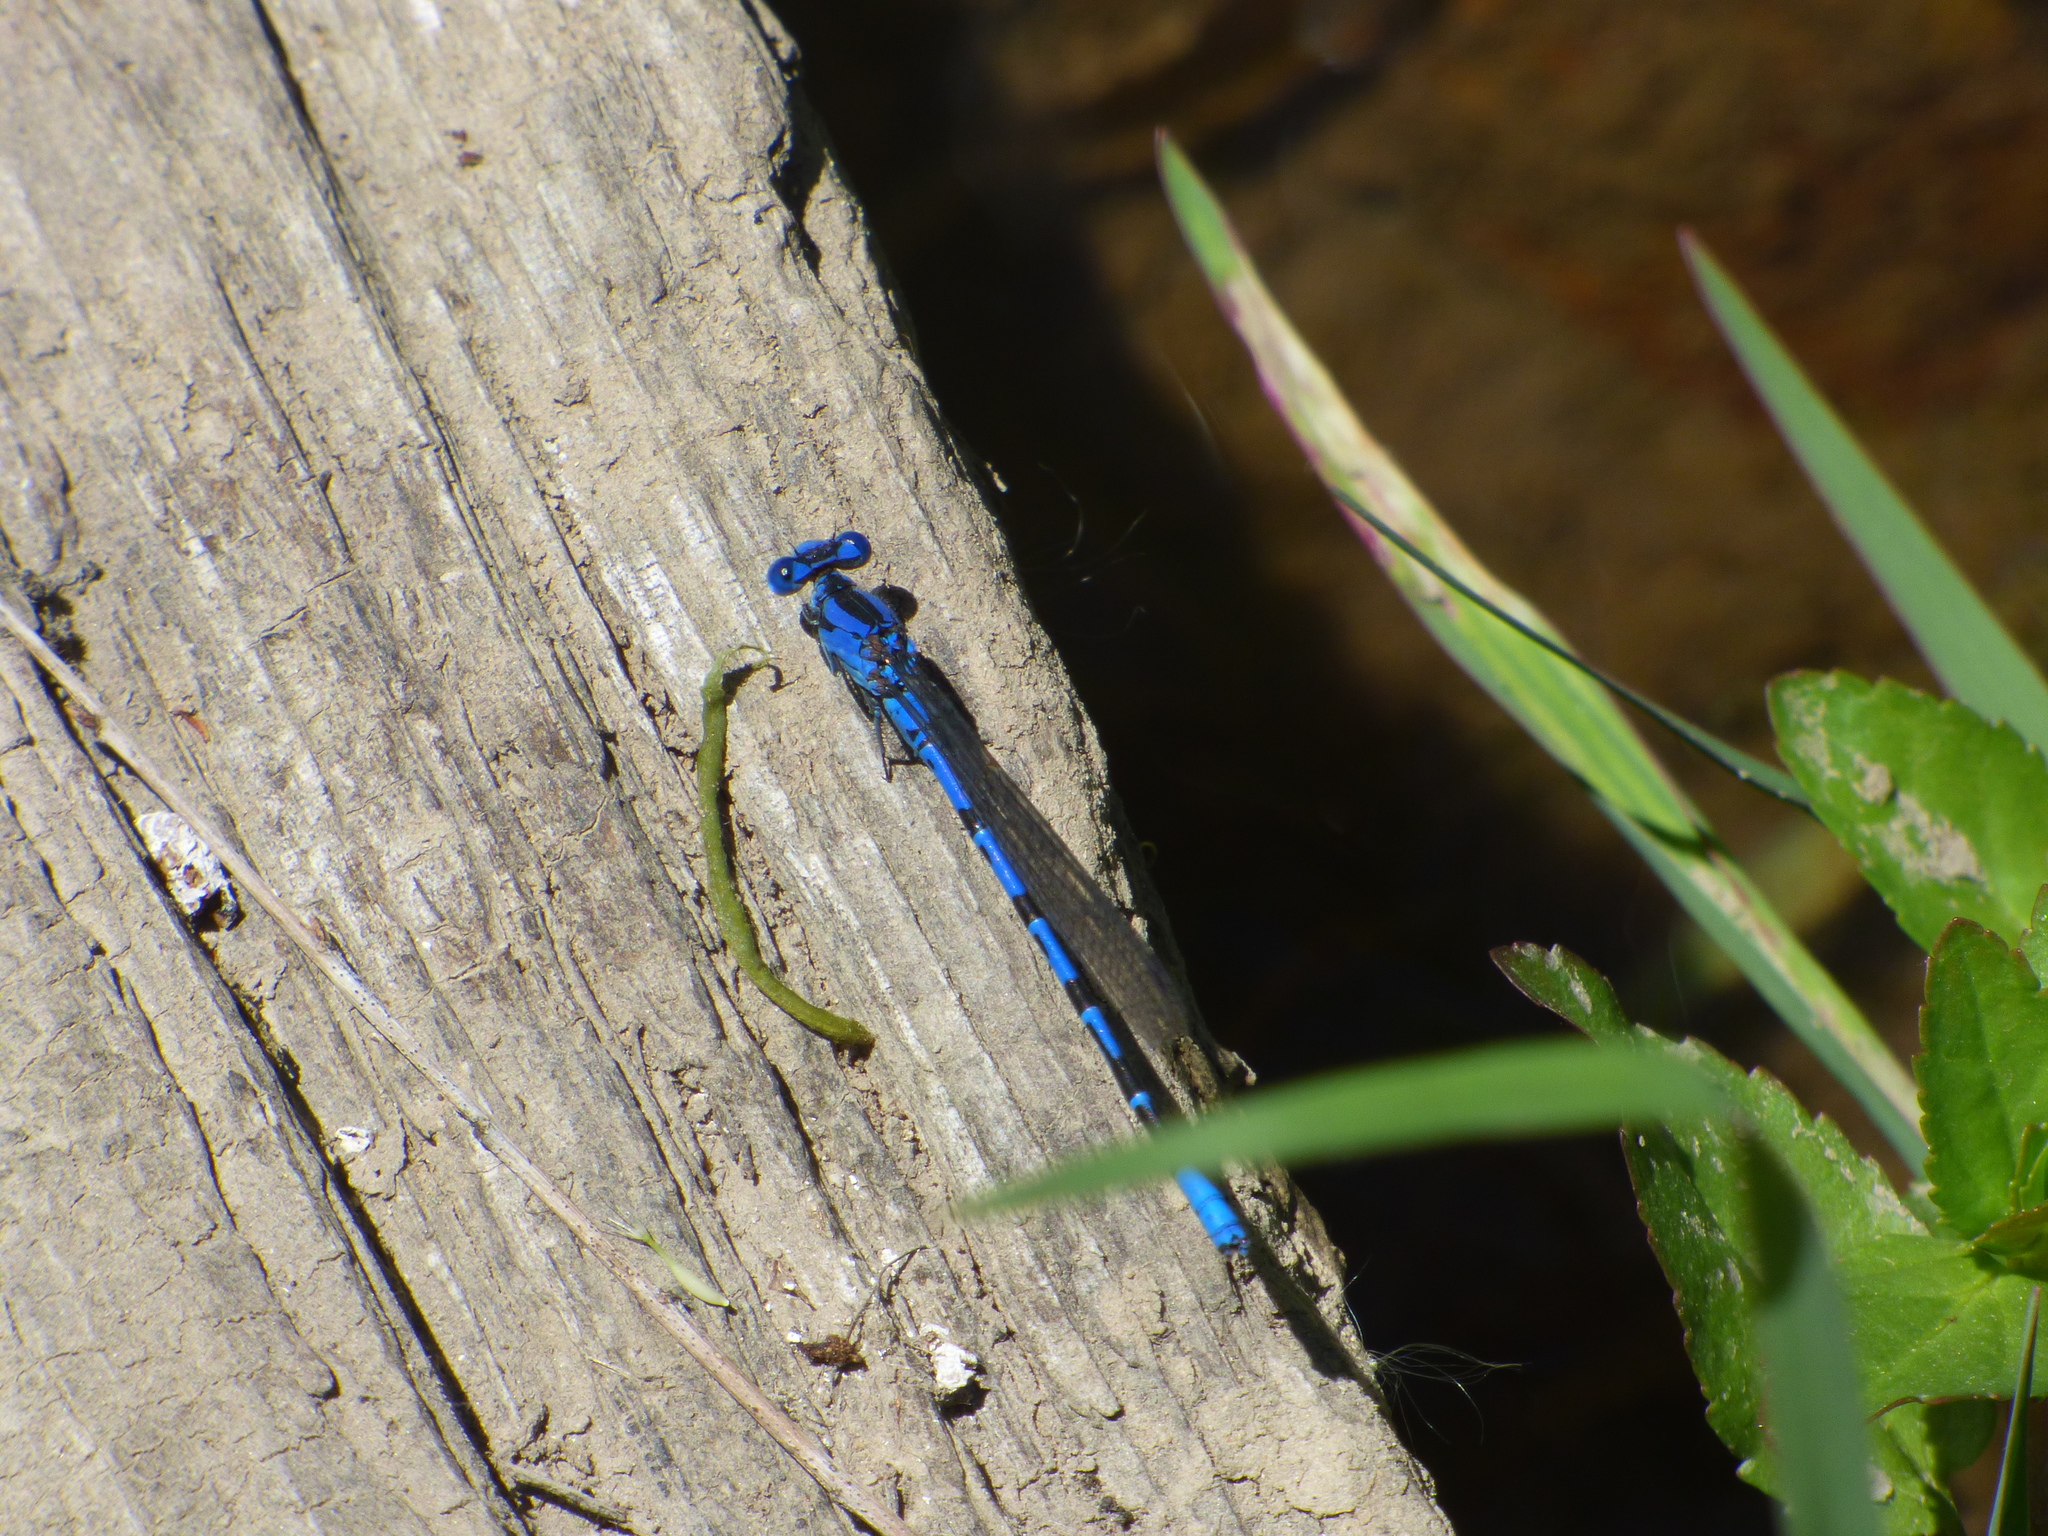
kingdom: Animalia
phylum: Arthropoda
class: Insecta
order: Odonata
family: Coenagrionidae
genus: Argia
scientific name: Argia vivida
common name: Vivid dancer
